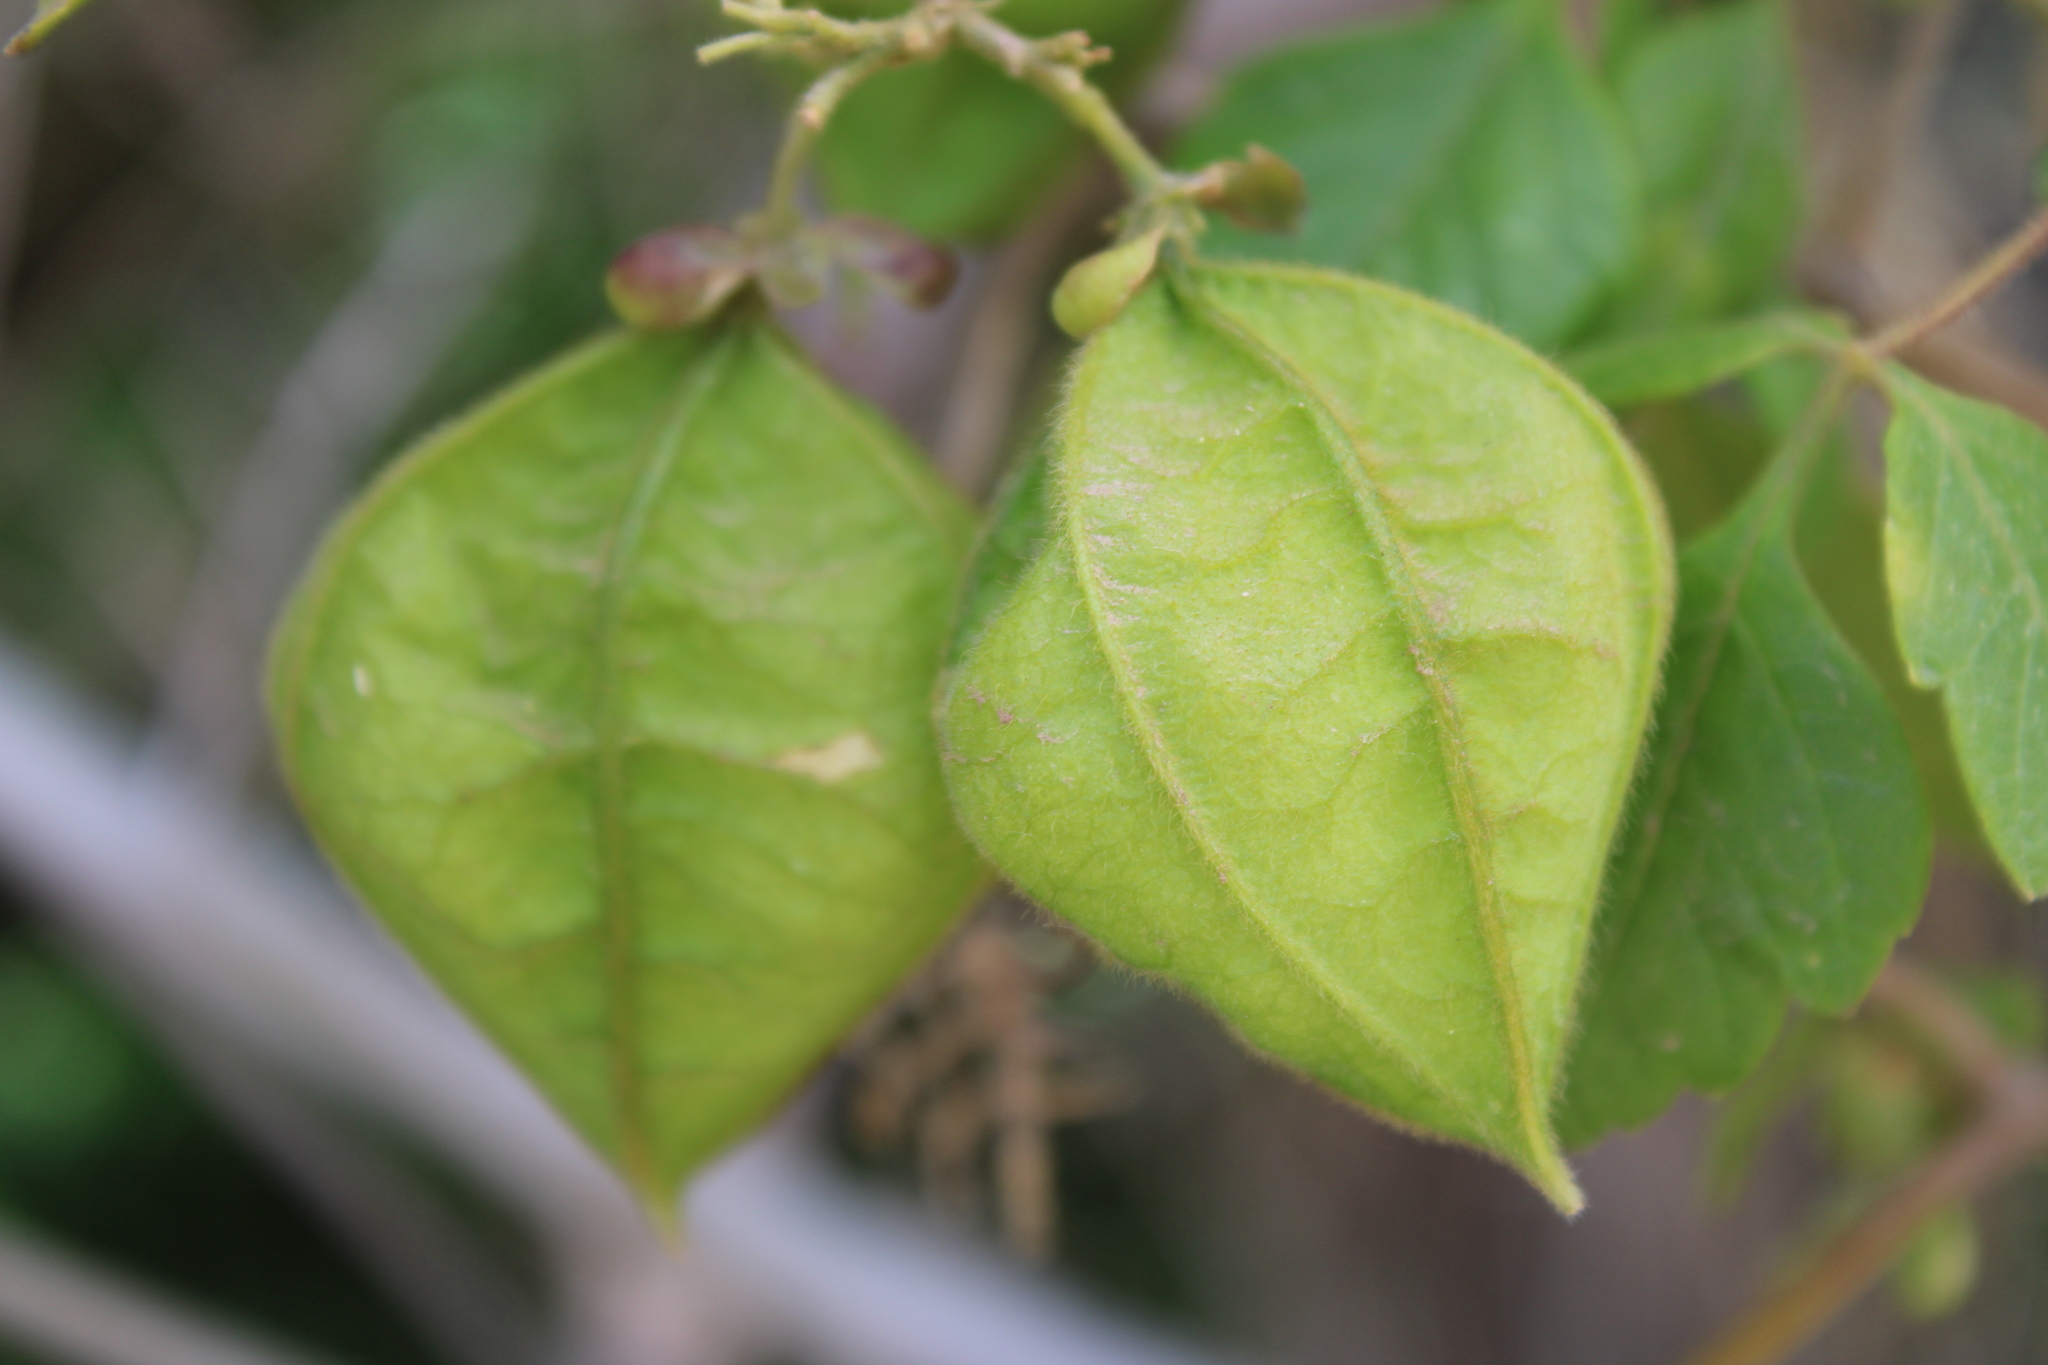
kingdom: Plantae
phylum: Tracheophyta
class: Magnoliopsida
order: Sapindales
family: Sapindaceae
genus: Cardiospermum
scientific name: Cardiospermum grandiflorum
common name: Balloon vine
